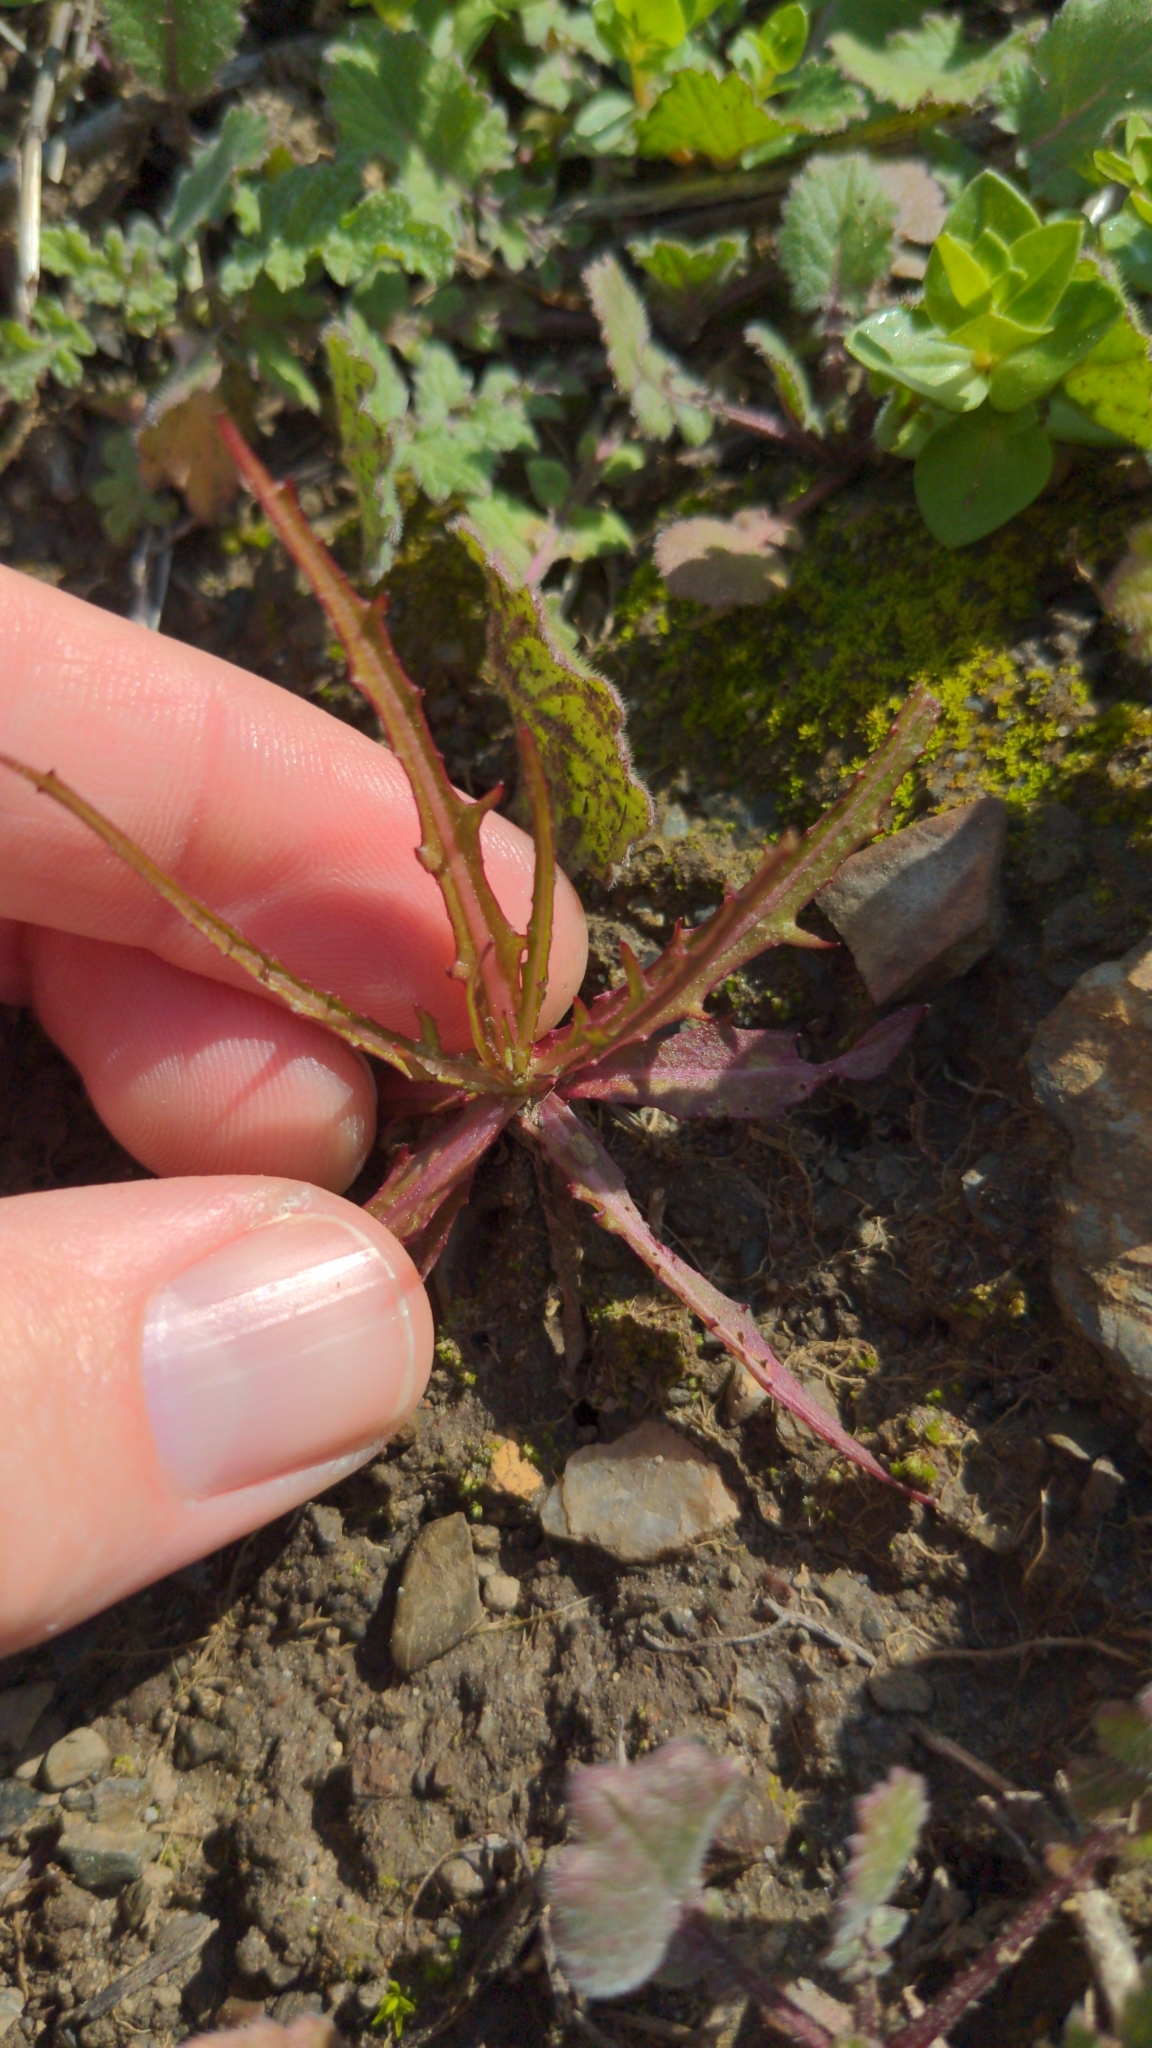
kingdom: Plantae
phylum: Tracheophyta
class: Magnoliopsida
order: Asterales
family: Asteraceae
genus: Malacothrix
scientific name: Malacothrix saxatilis
